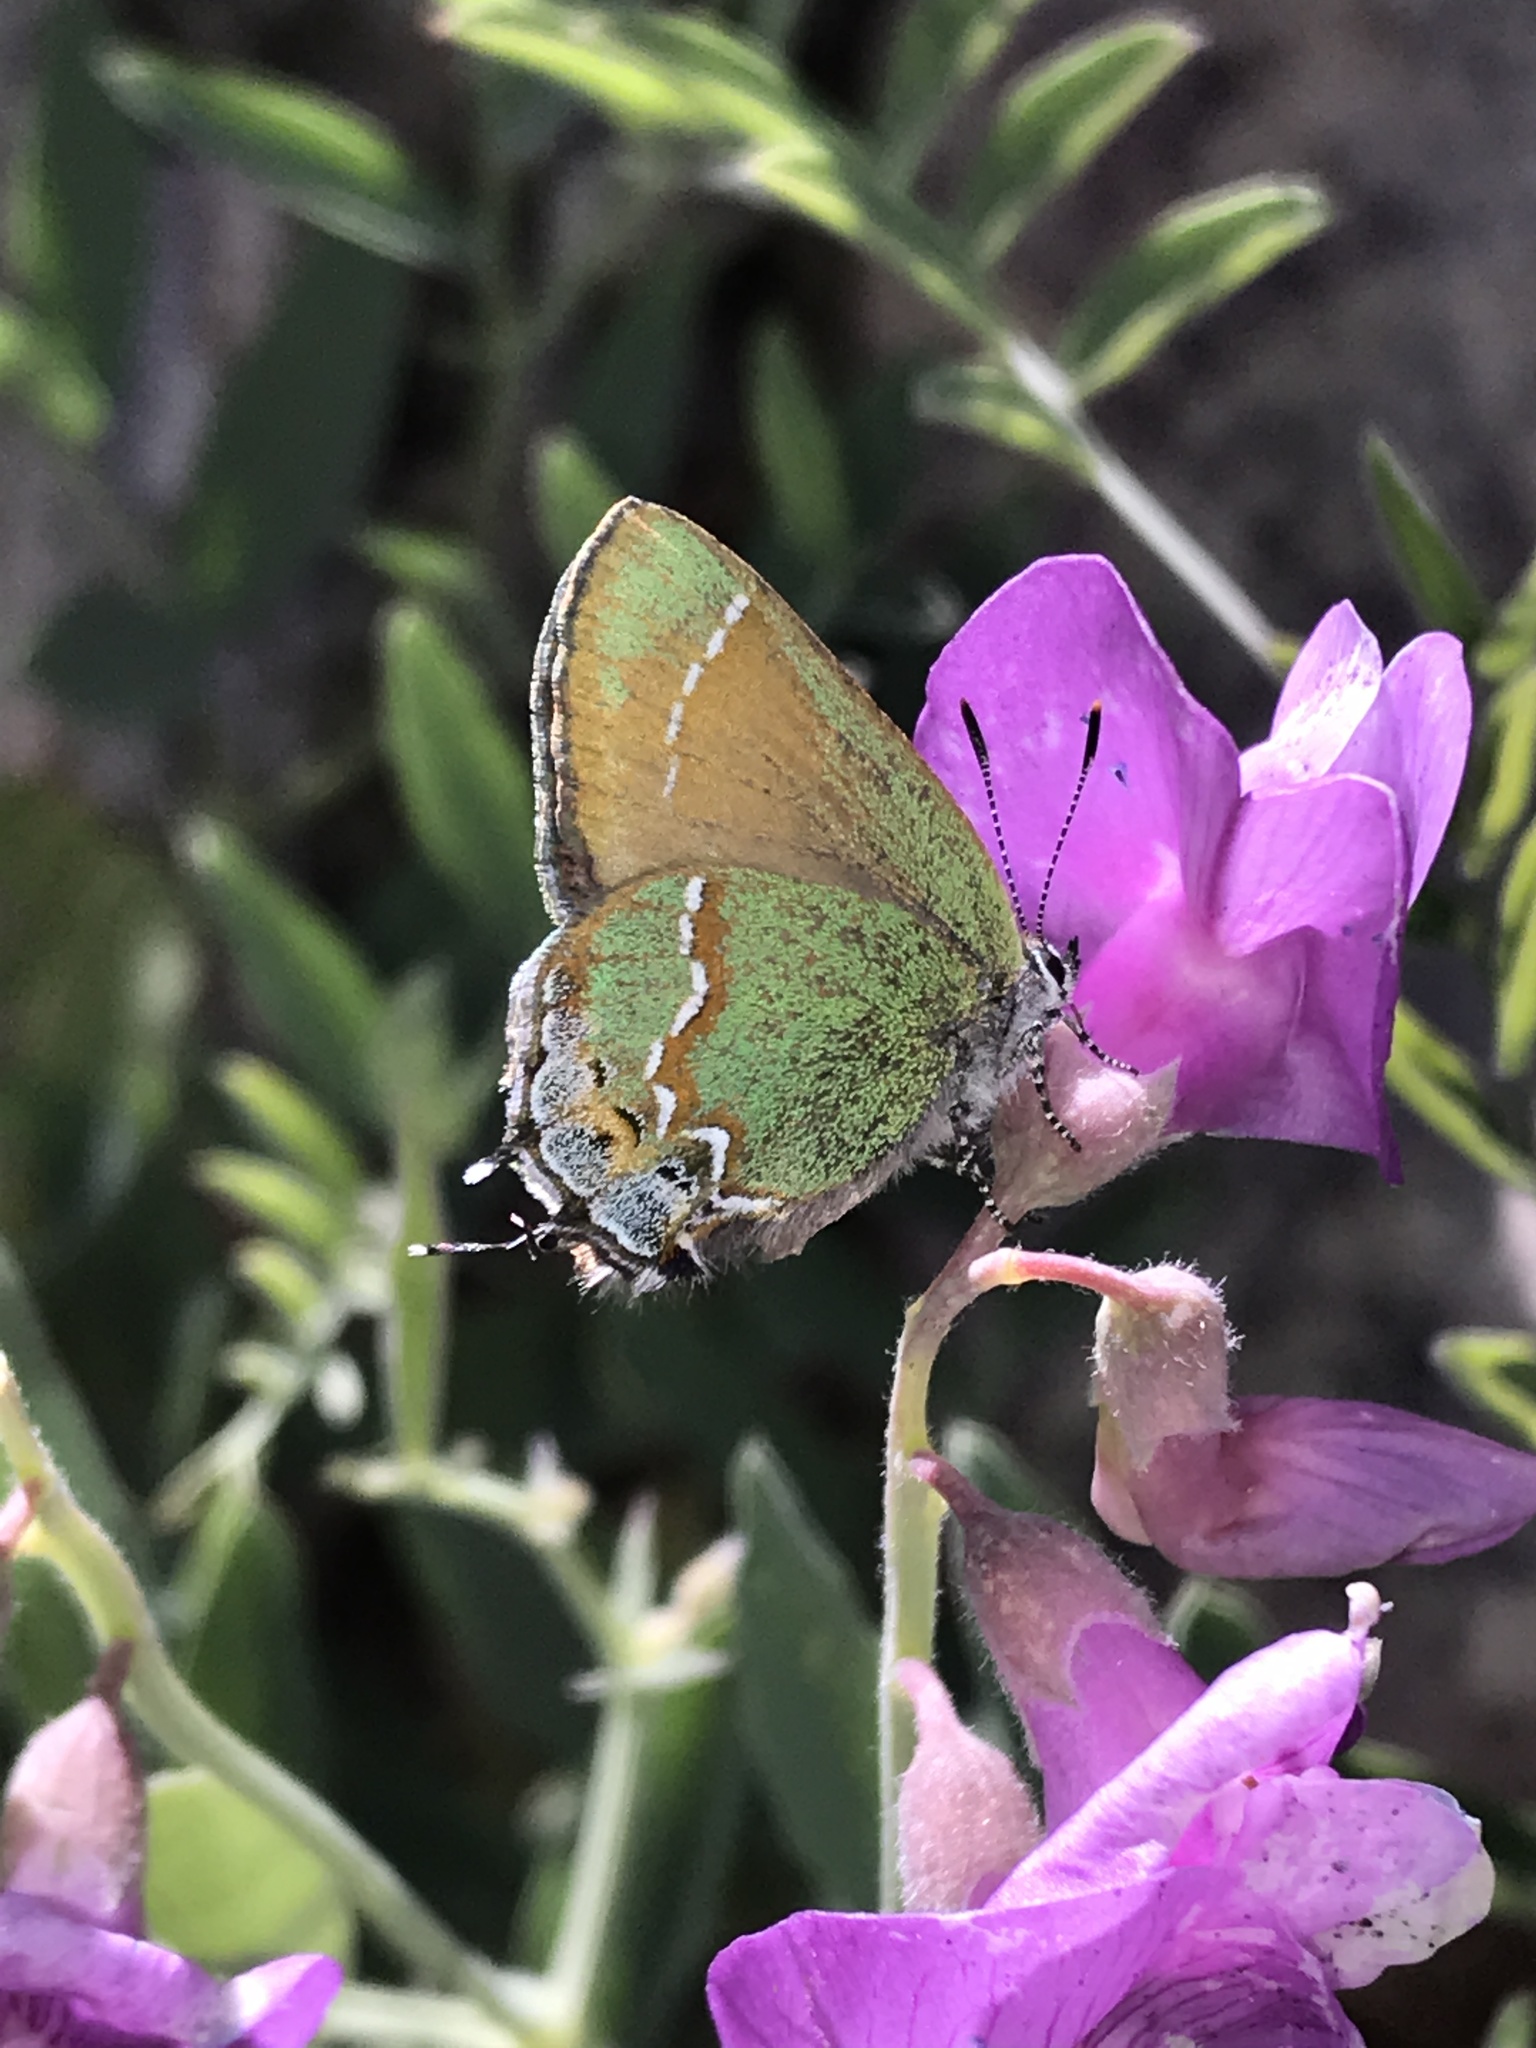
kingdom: Animalia
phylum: Arthropoda
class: Insecta
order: Lepidoptera
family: Lycaenidae
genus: Mitoura
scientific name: Mitoura siva
